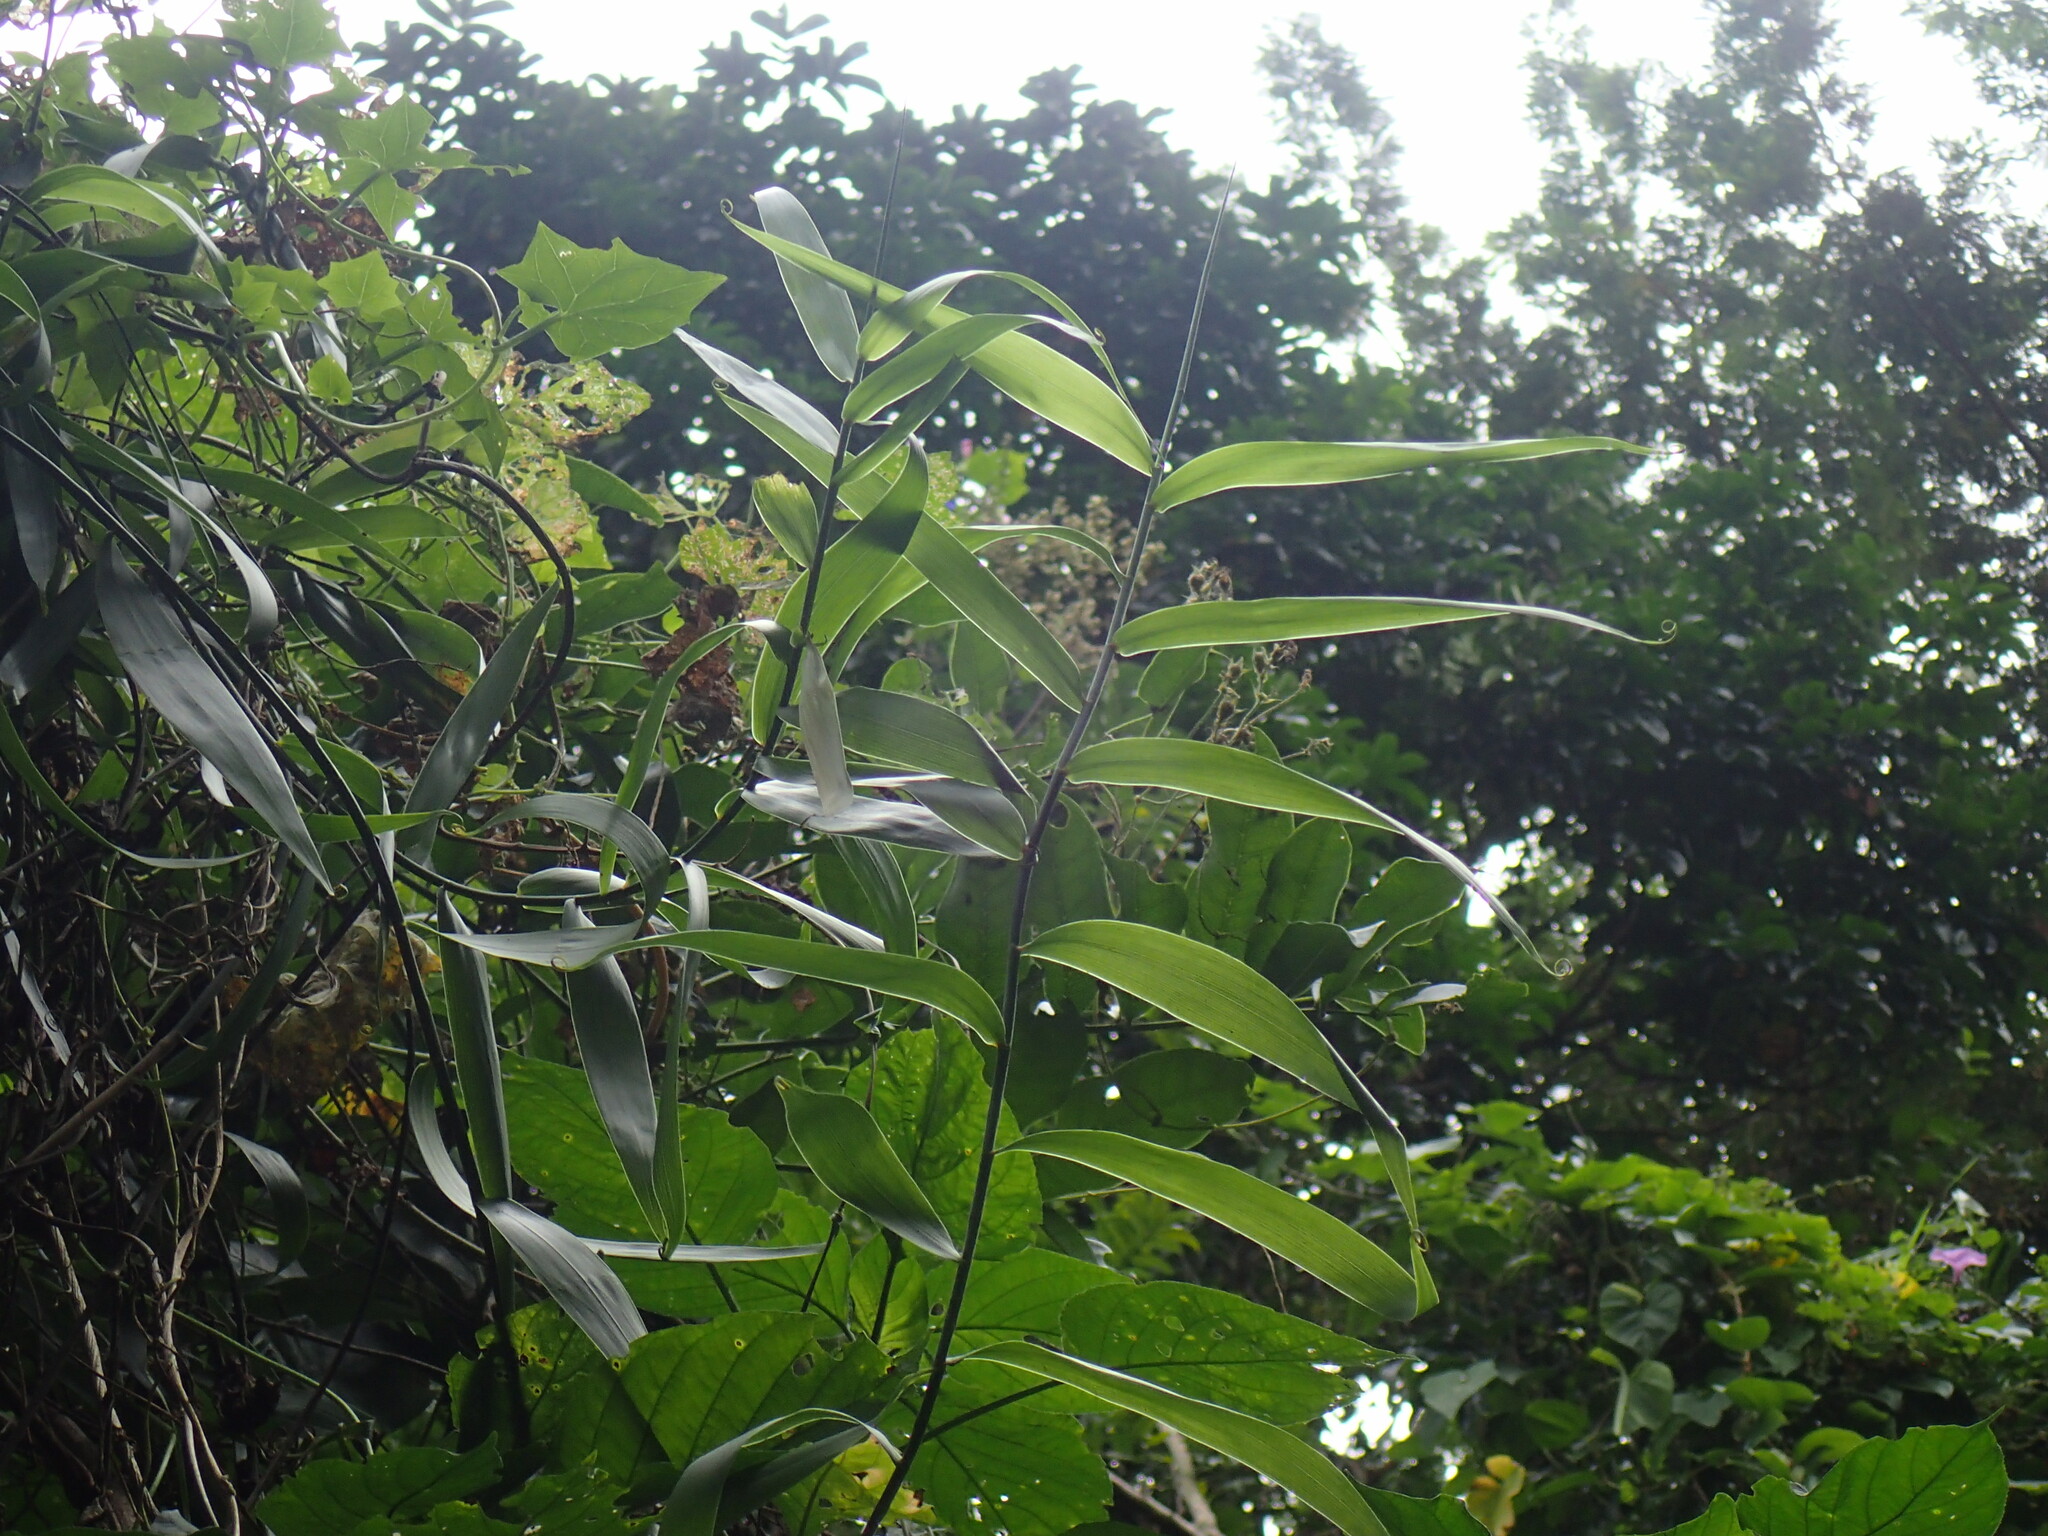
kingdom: Plantae
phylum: Tracheophyta
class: Liliopsida
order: Poales
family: Flagellariaceae
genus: Flagellaria
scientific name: Flagellaria guineensis
